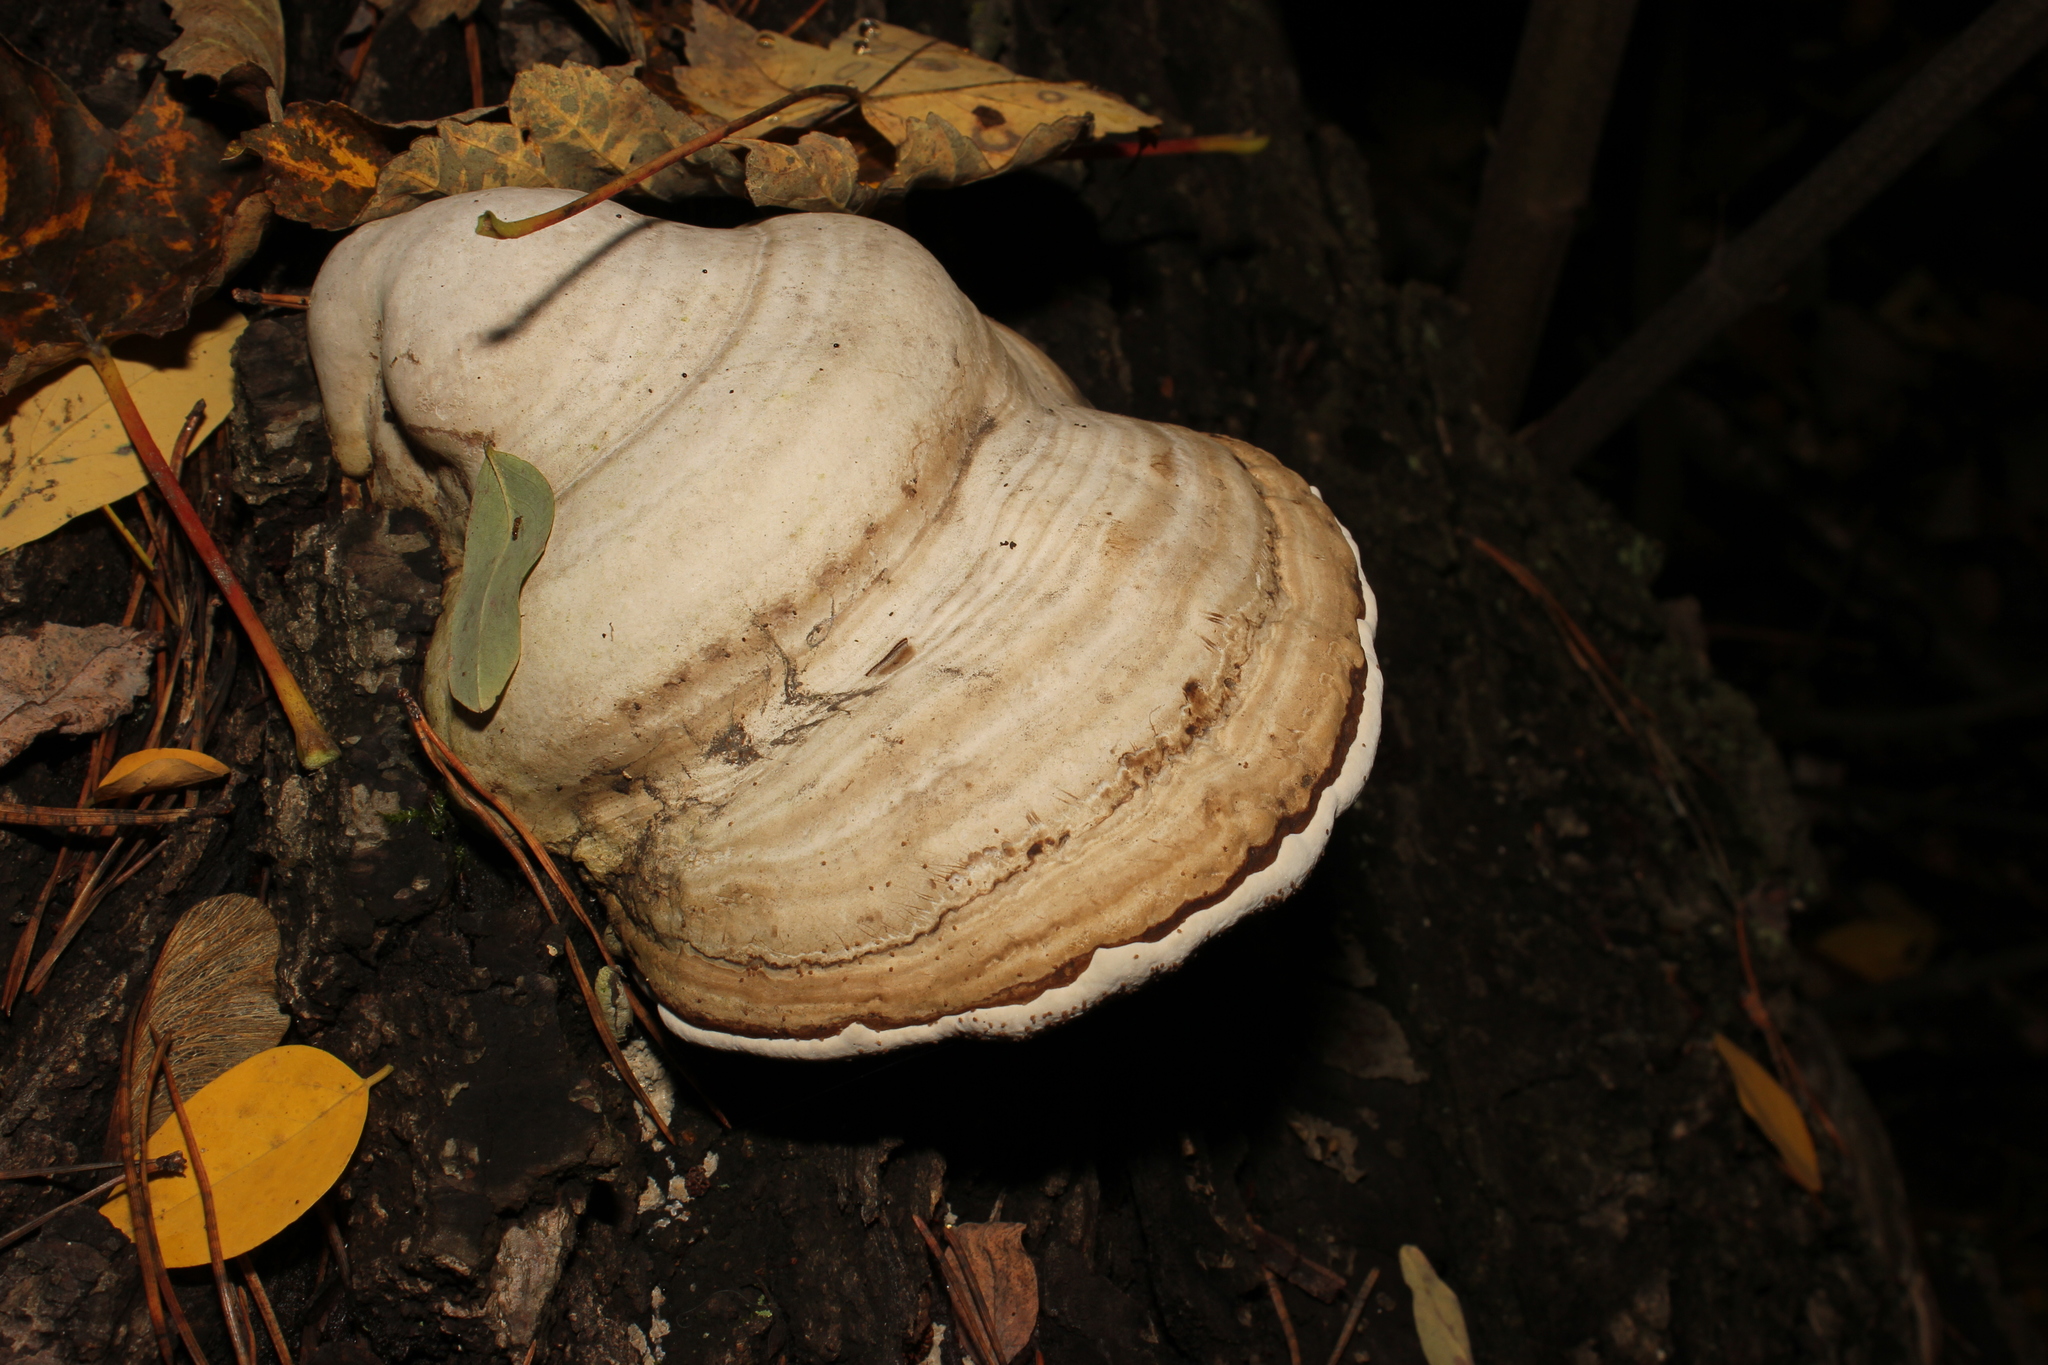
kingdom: Fungi
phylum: Basidiomycota
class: Agaricomycetes
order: Polyporales
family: Polyporaceae
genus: Fomes
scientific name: Fomes fomentarius
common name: Hoof fungus
